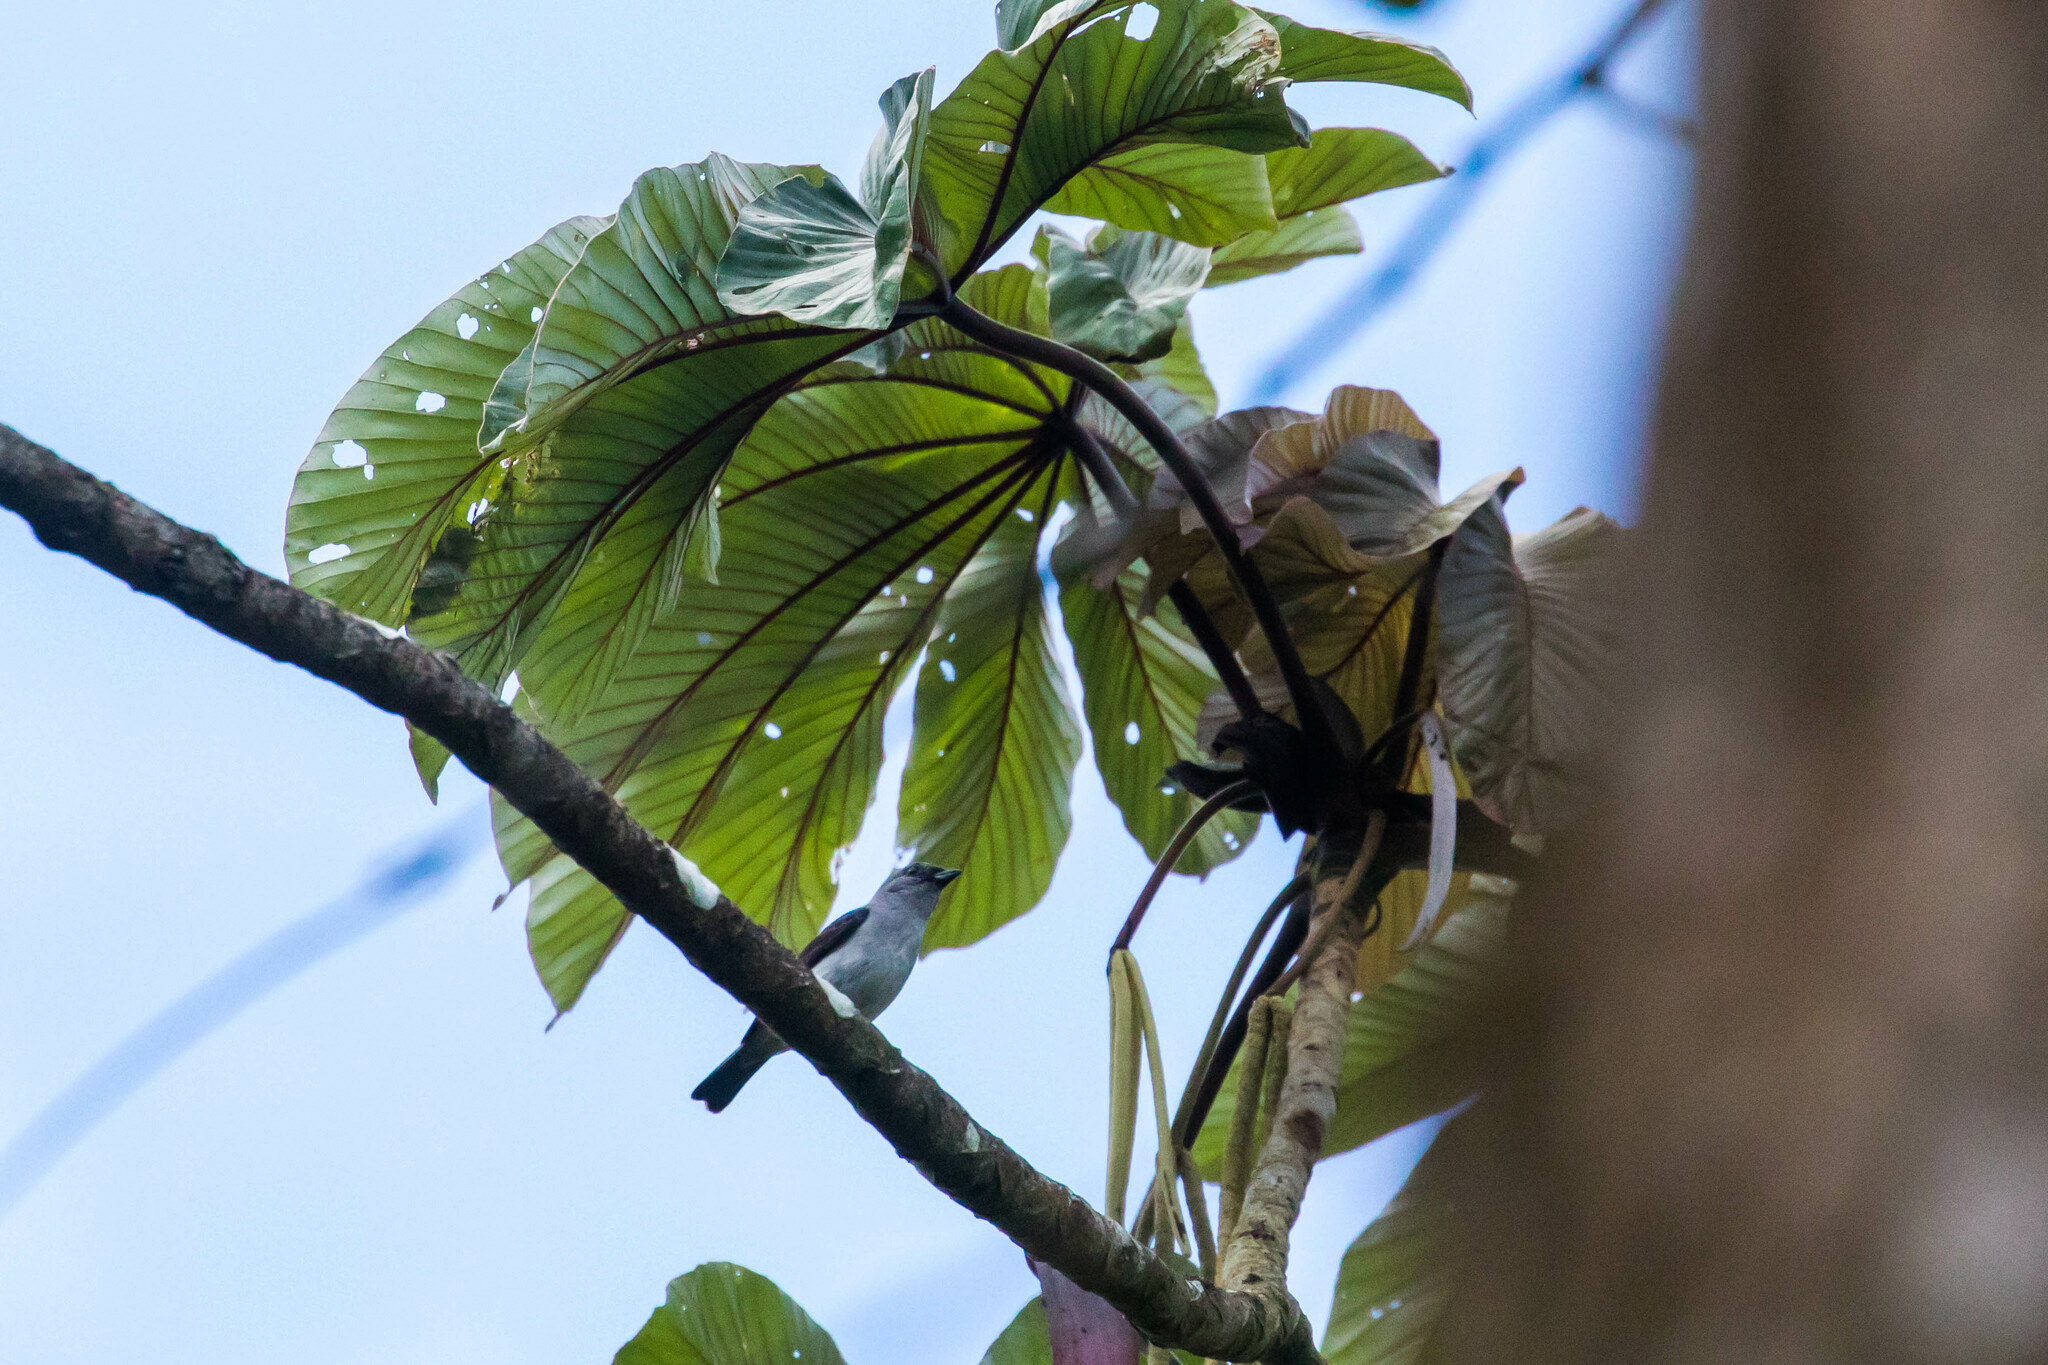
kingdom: Animalia
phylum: Chordata
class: Aves
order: Passeriformes
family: Thraupidae
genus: Tangara
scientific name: Tangara inornata
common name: Plain-colored tanager
